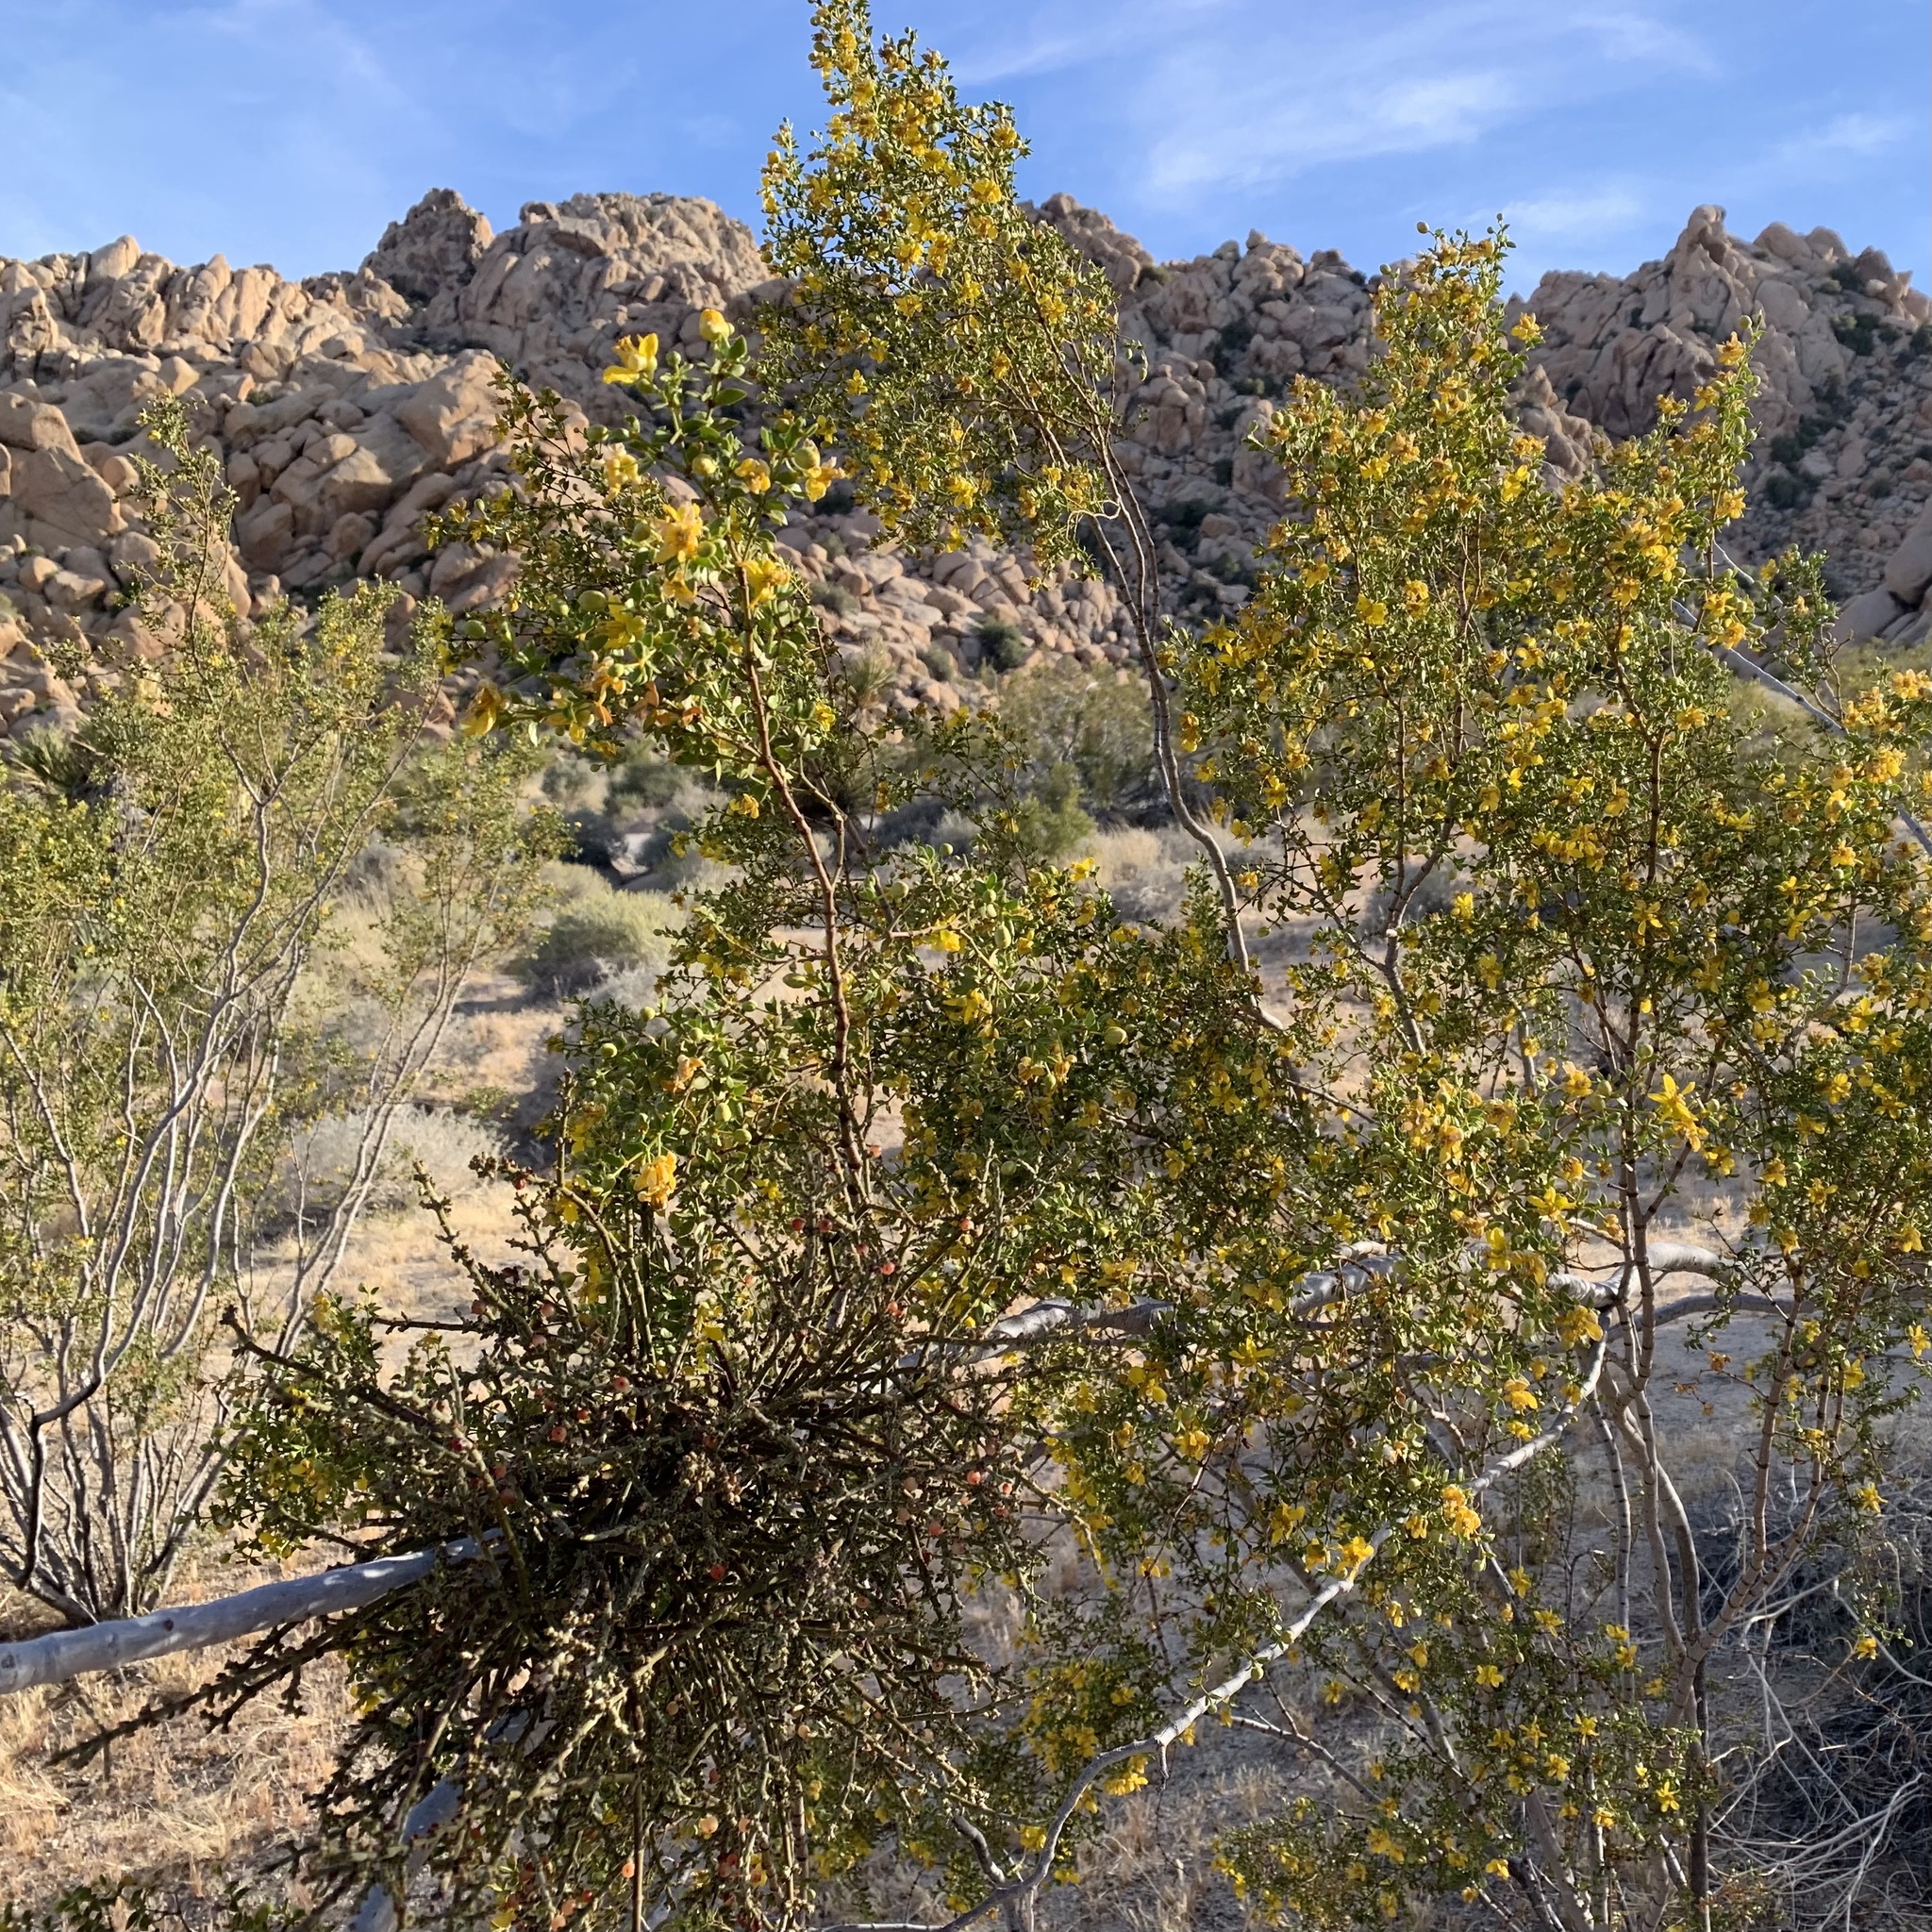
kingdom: Plantae
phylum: Tracheophyta
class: Magnoliopsida
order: Santalales
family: Viscaceae
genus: Phoradendron
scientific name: Phoradendron californicum
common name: Acacia mistletoe
